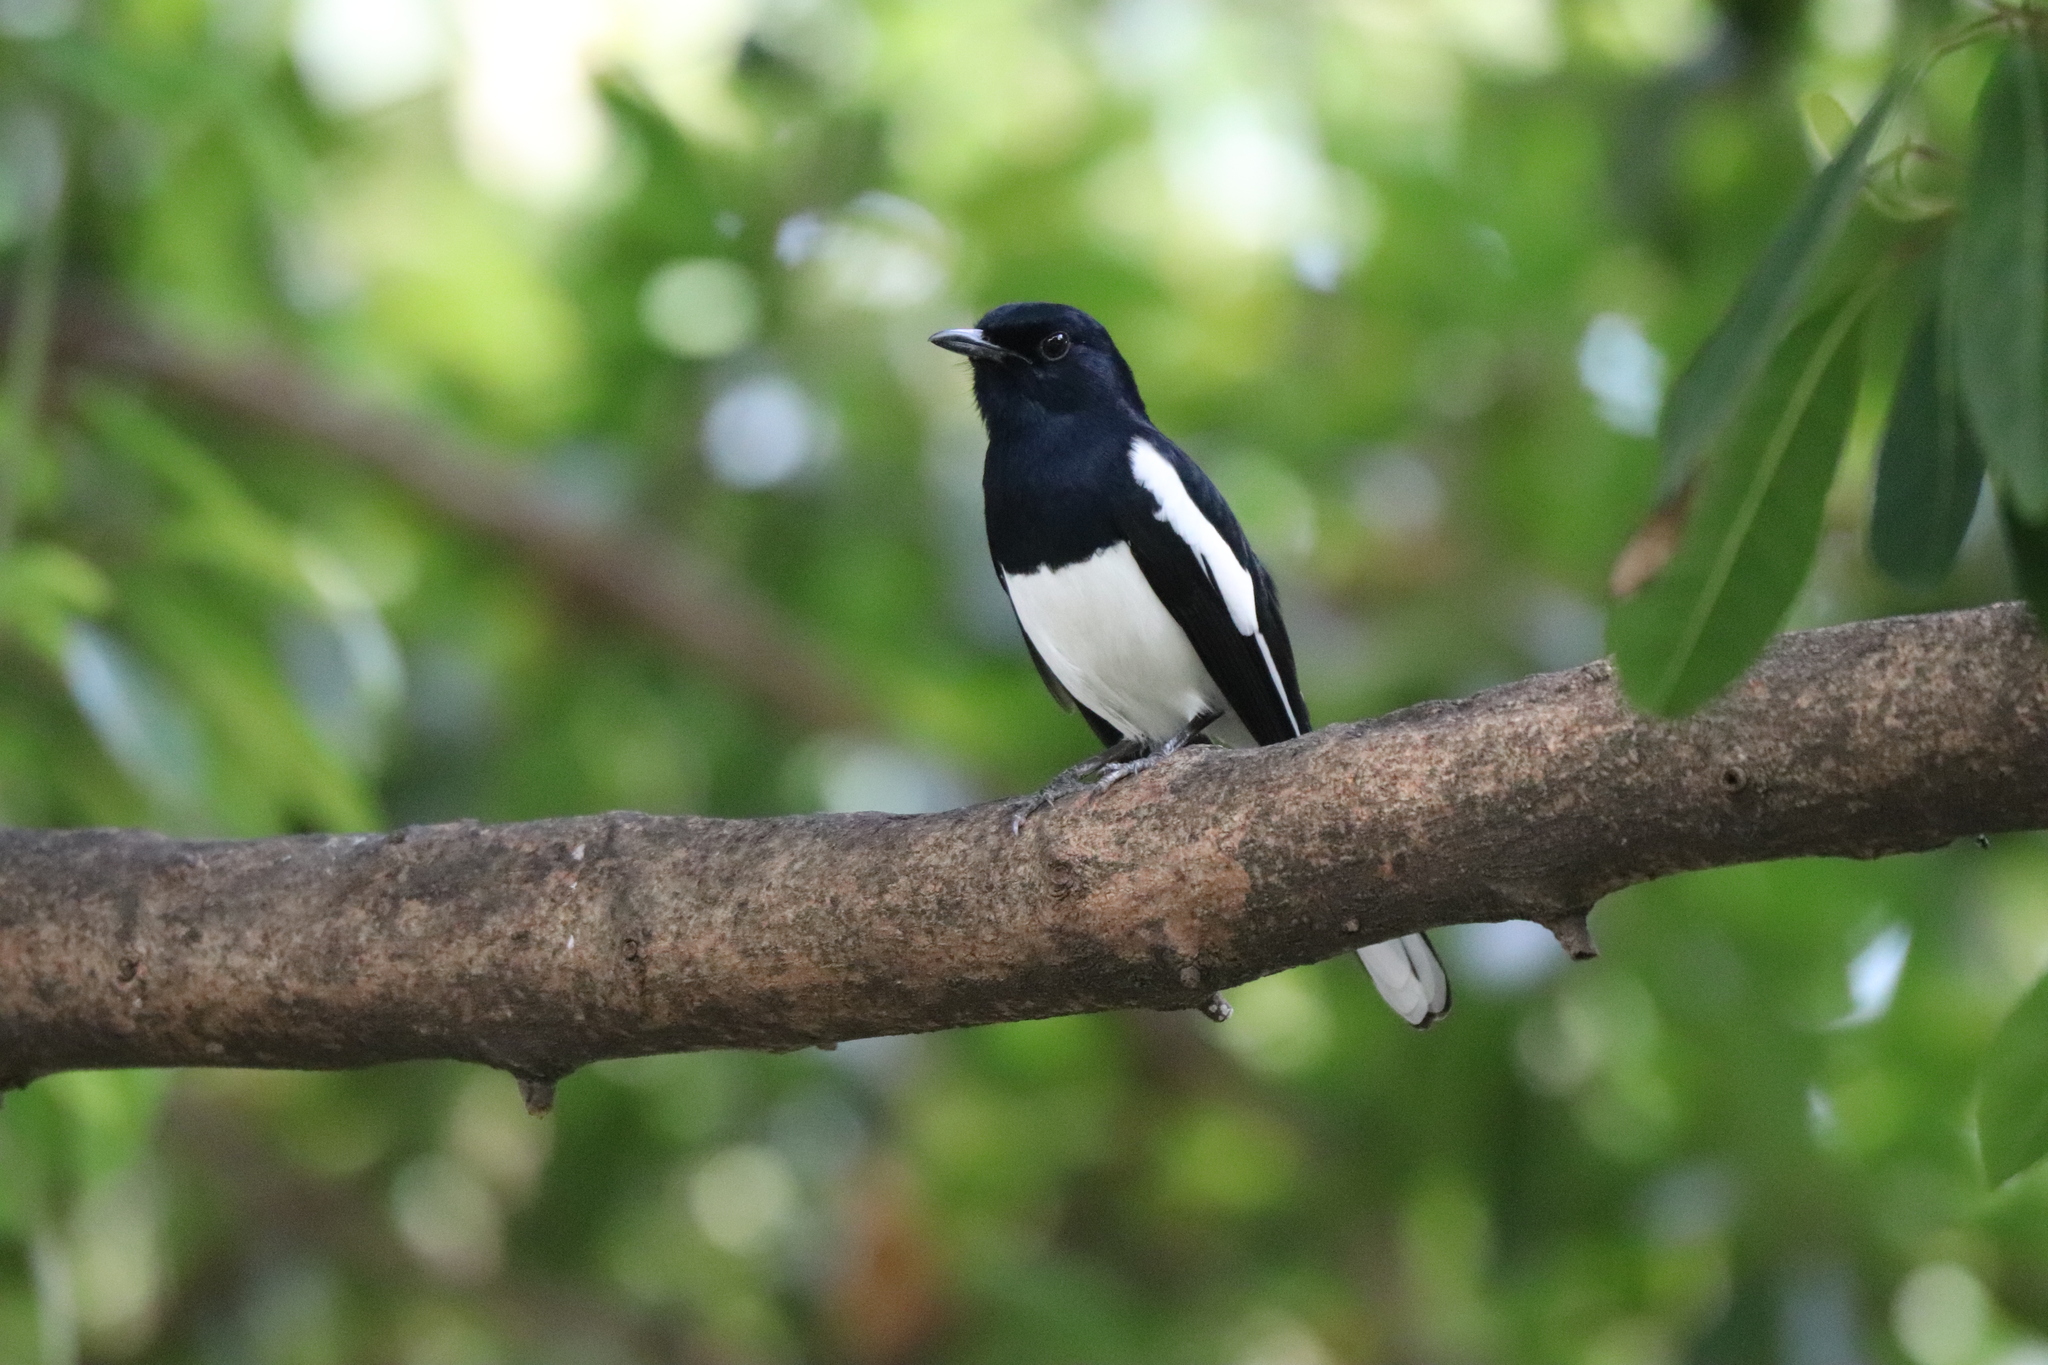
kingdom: Animalia
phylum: Chordata
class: Aves
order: Passeriformes
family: Muscicapidae
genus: Copsychus
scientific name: Copsychus saularis
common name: Oriental magpie-robin
